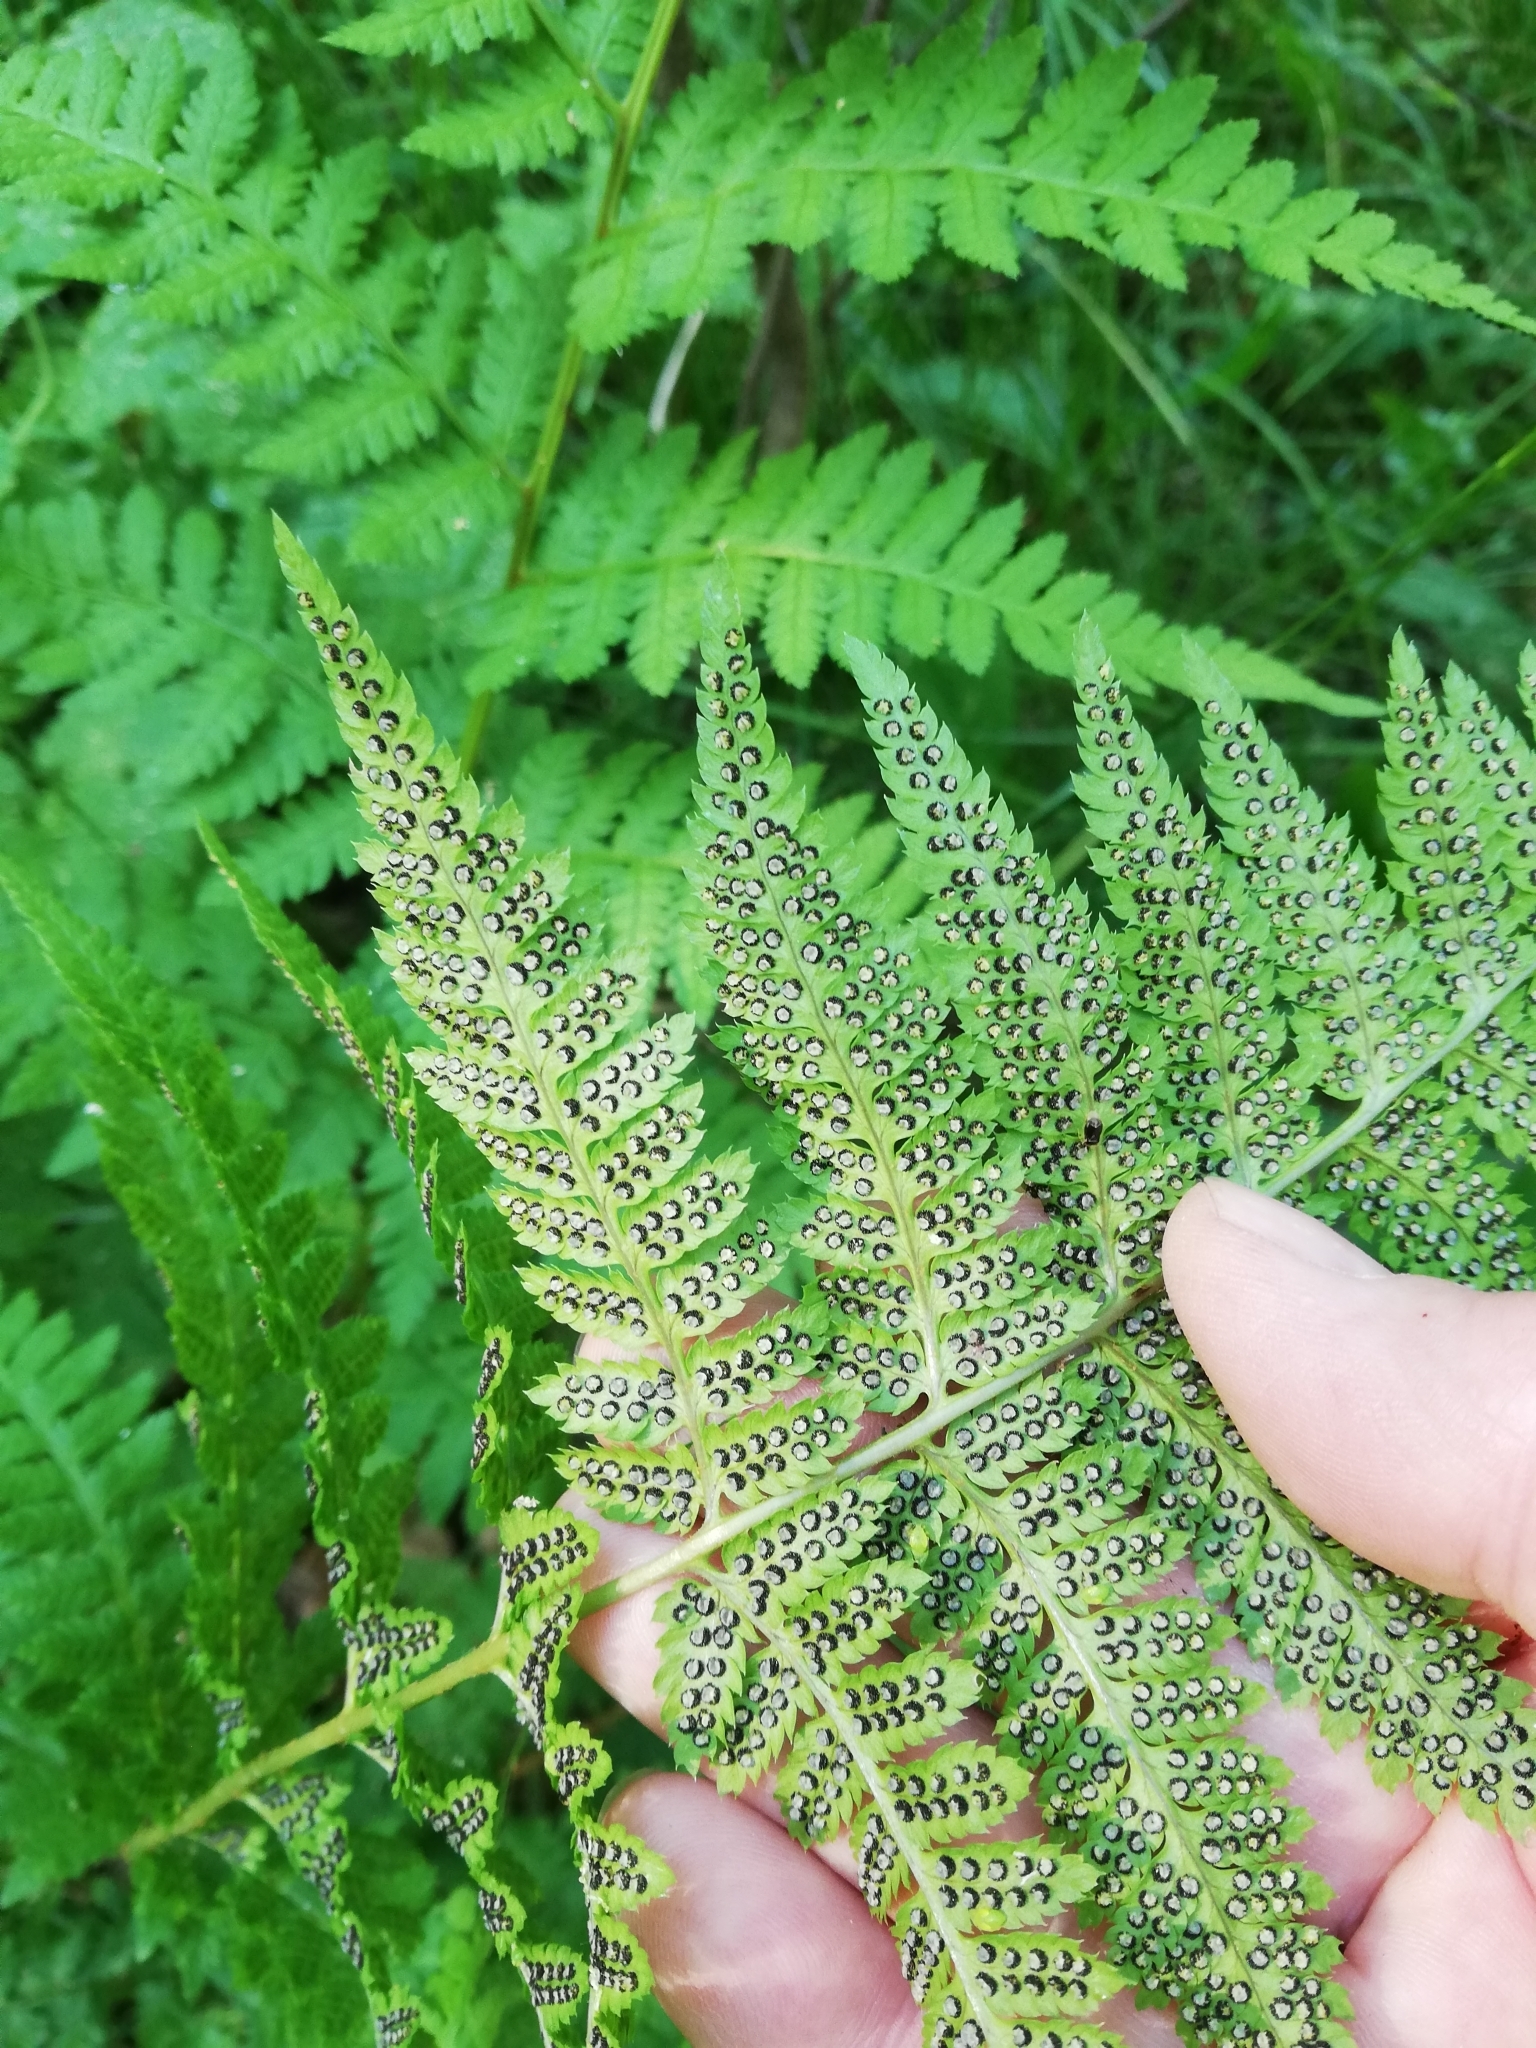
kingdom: Plantae
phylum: Tracheophyta
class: Polypodiopsida
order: Polypodiales
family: Dryopteridaceae
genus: Dryopteris
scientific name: Dryopteris carthusiana
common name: Narrow buckler-fern
